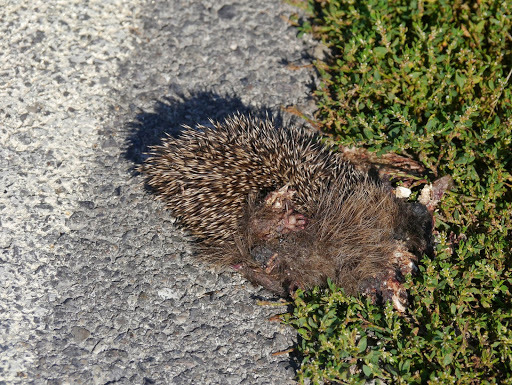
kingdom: Animalia
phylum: Chordata
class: Mammalia
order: Erinaceomorpha
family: Erinaceidae
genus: Erinaceus
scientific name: Erinaceus europaeus
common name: West european hedgehog
